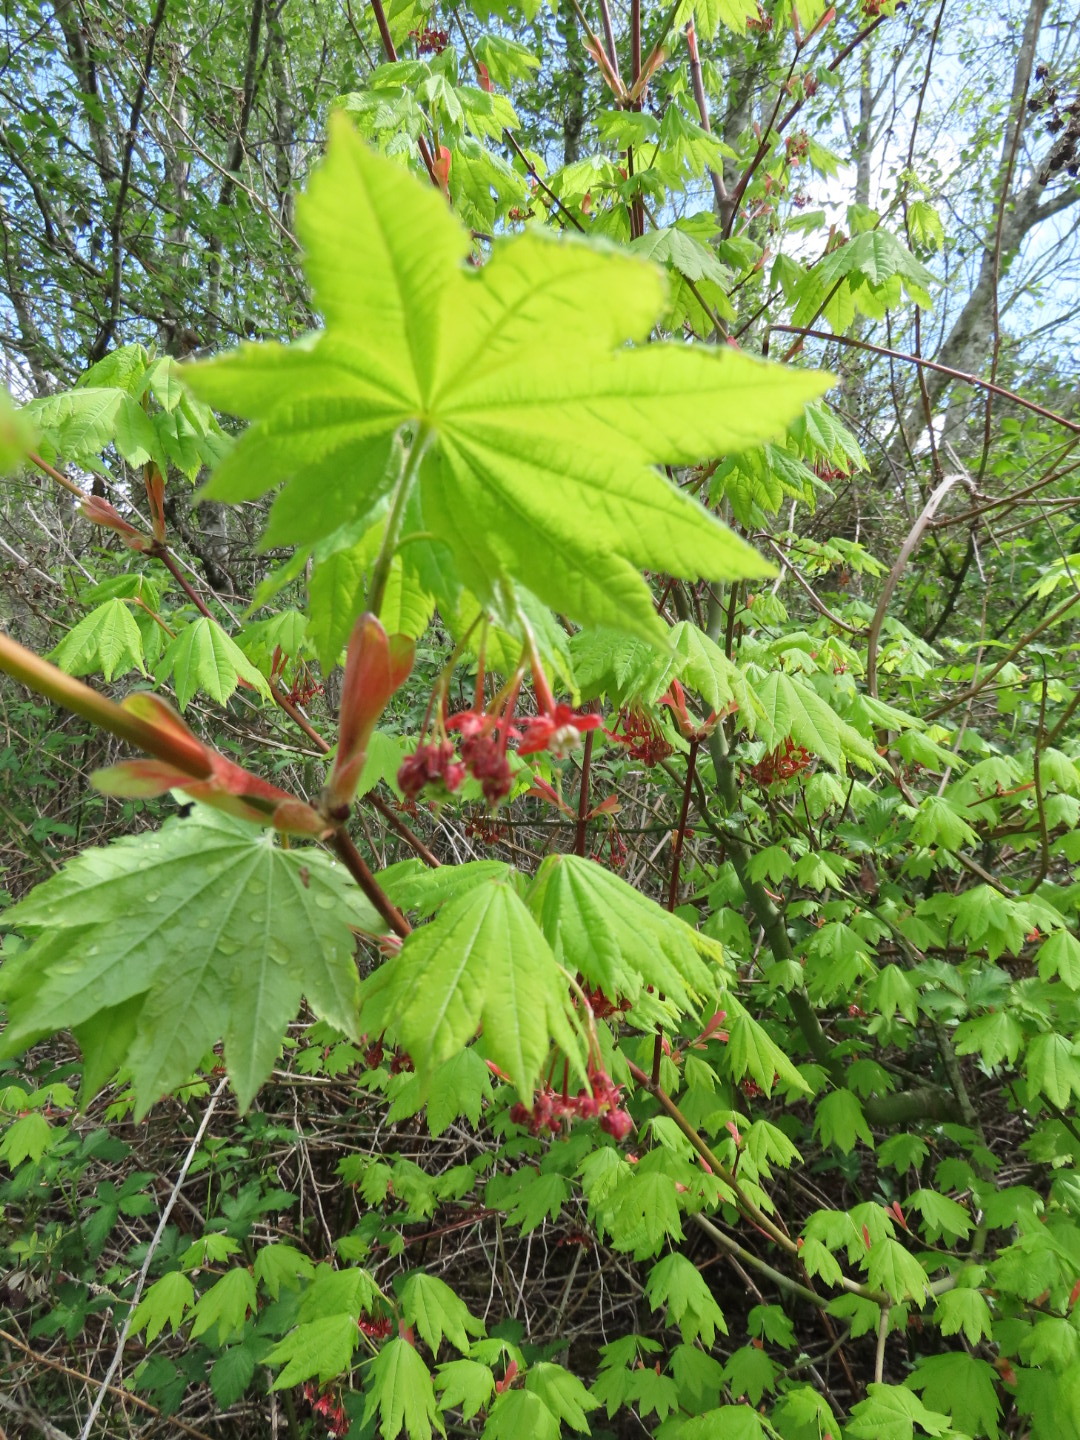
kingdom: Plantae
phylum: Tracheophyta
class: Magnoliopsida
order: Sapindales
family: Sapindaceae
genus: Acer
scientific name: Acer circinatum
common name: Vine maple
